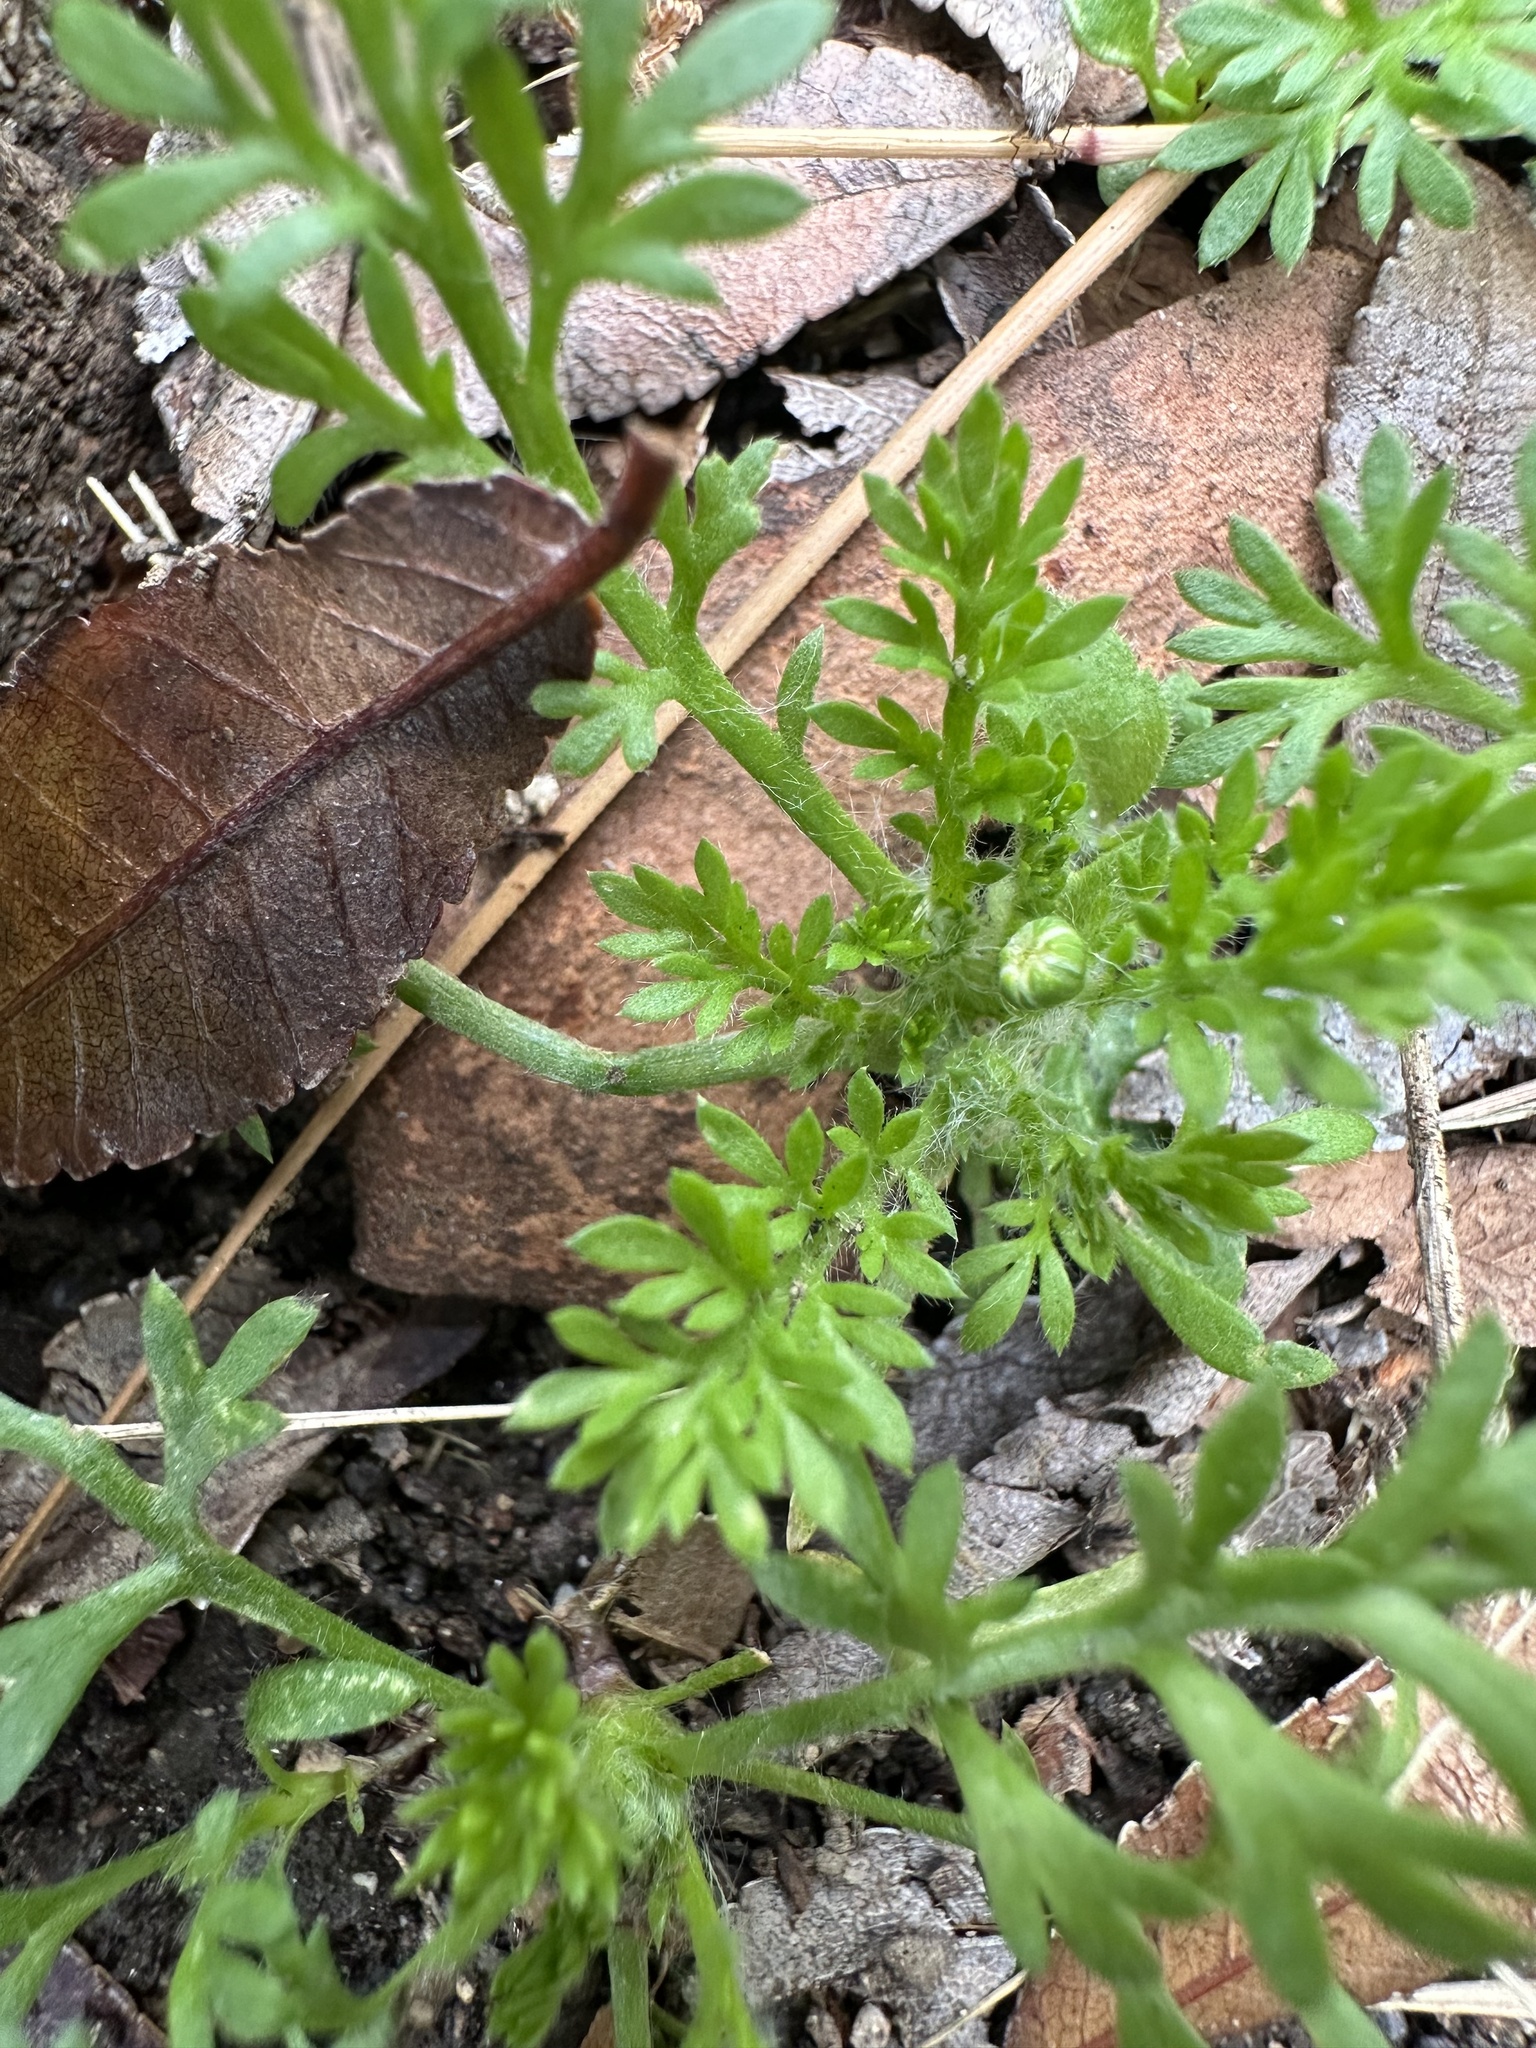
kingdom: Plantae
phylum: Tracheophyta
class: Magnoliopsida
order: Asterales
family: Asteraceae
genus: Cotula
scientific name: Cotula australis
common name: Australian waterbuttons
